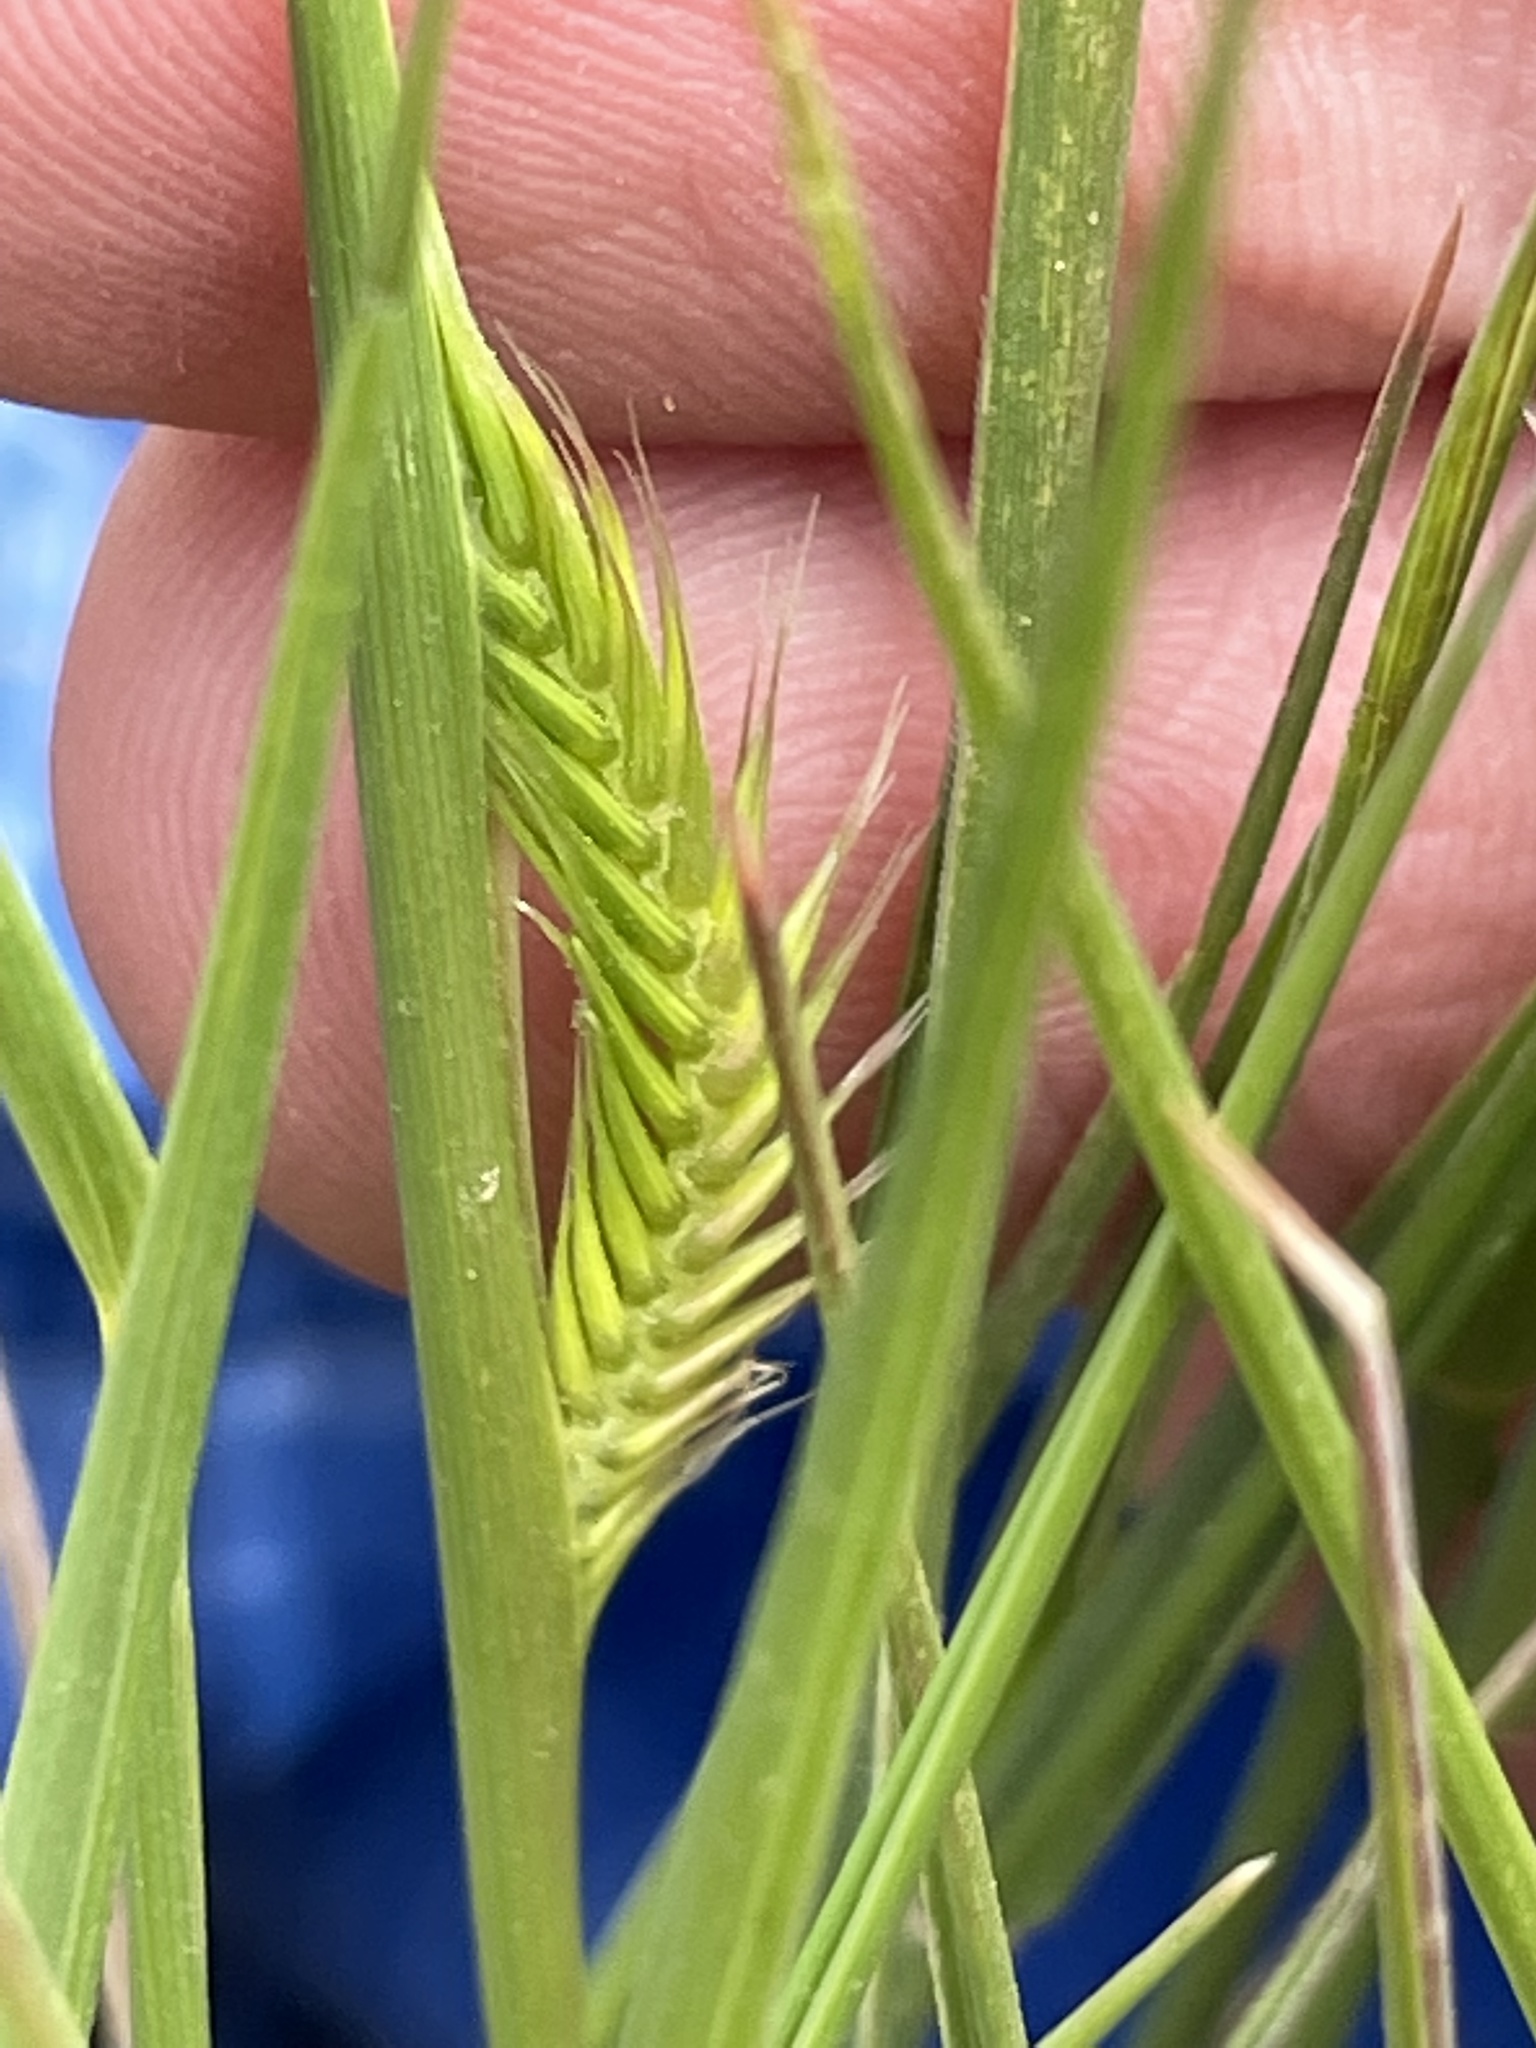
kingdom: Plantae
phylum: Tracheophyta
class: Liliopsida
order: Poales
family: Poaceae
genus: Agropyron
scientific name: Agropyron cristatum
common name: Crested wheatgrass
